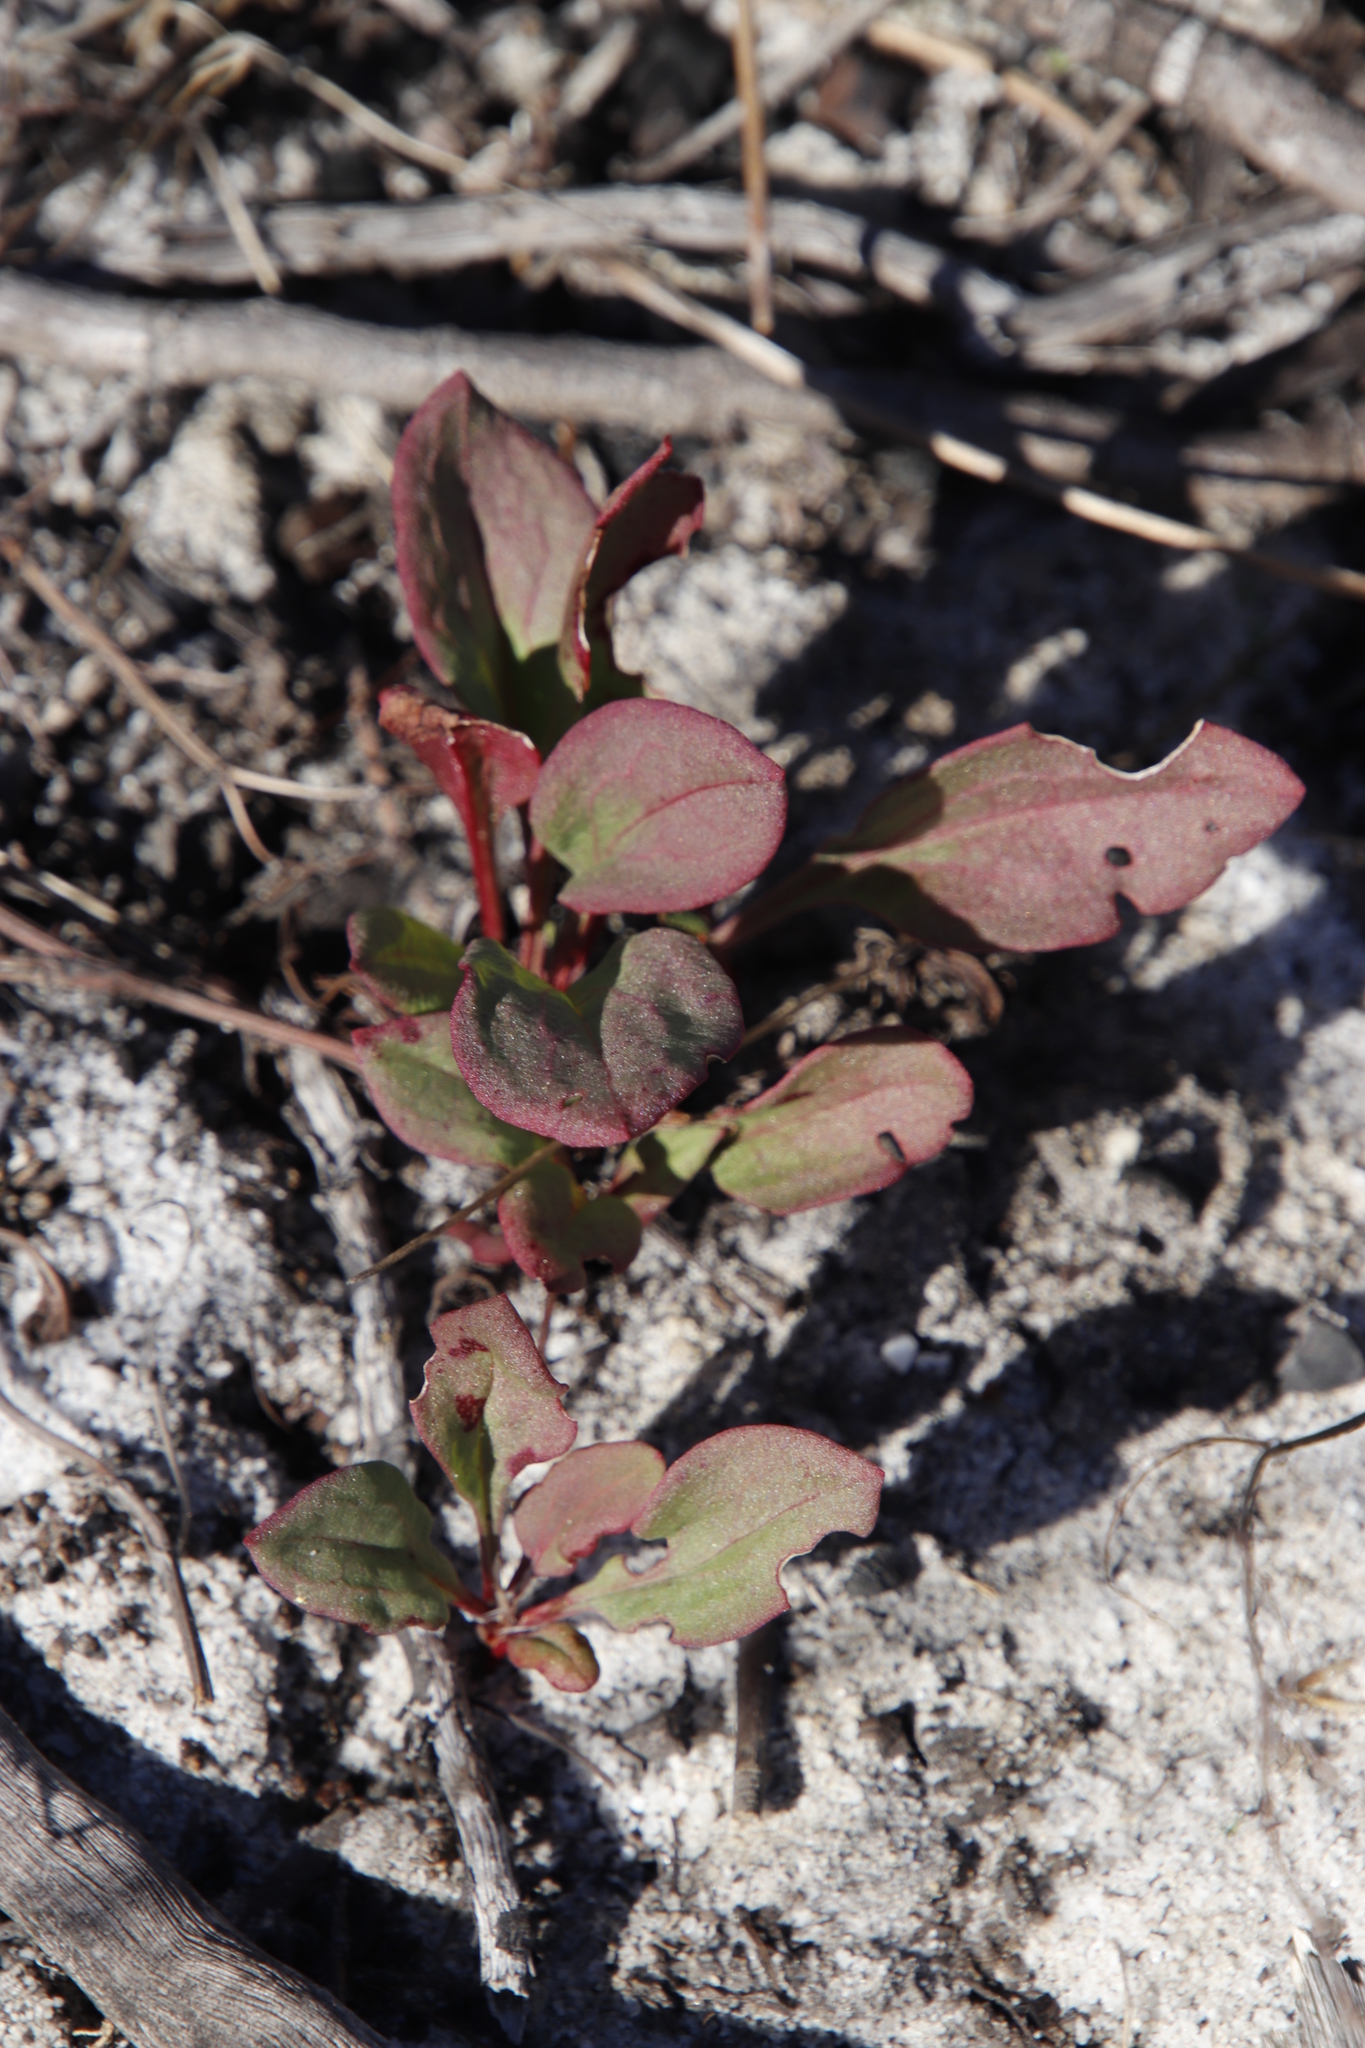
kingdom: Plantae
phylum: Tracheophyta
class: Magnoliopsida
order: Caryophyllales
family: Polygonaceae
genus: Rumex
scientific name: Rumex acetosella
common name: Common sheep sorrel
